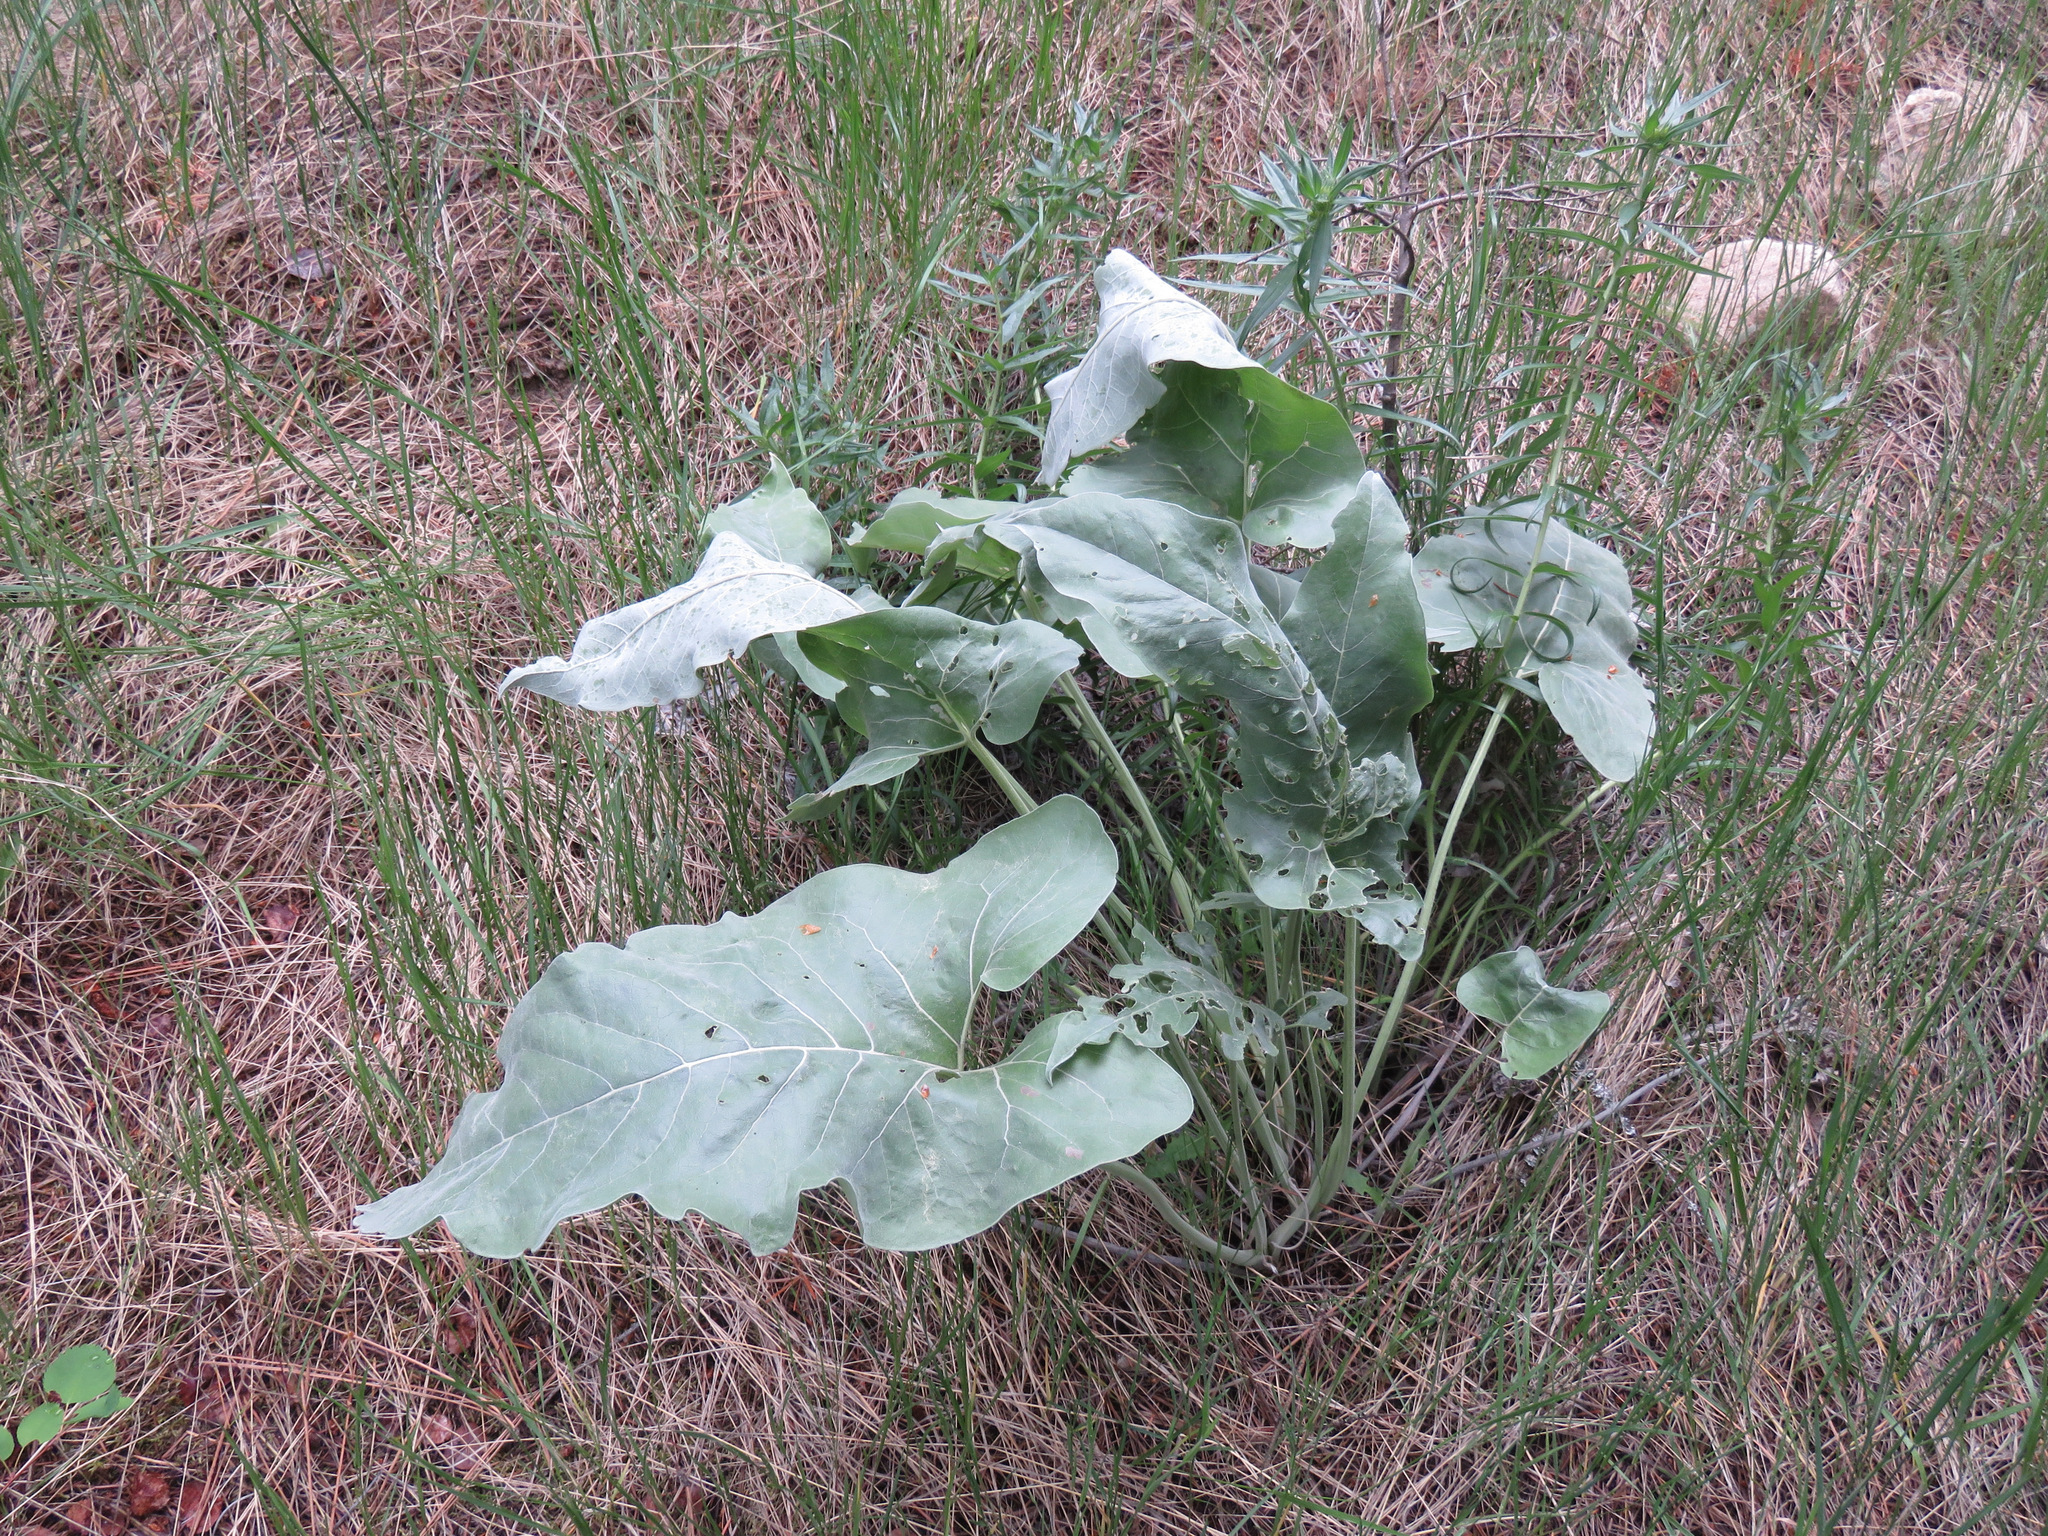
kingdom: Plantae
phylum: Tracheophyta
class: Magnoliopsida
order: Asterales
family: Asteraceae
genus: Wyethia
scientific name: Wyethia sagittata
